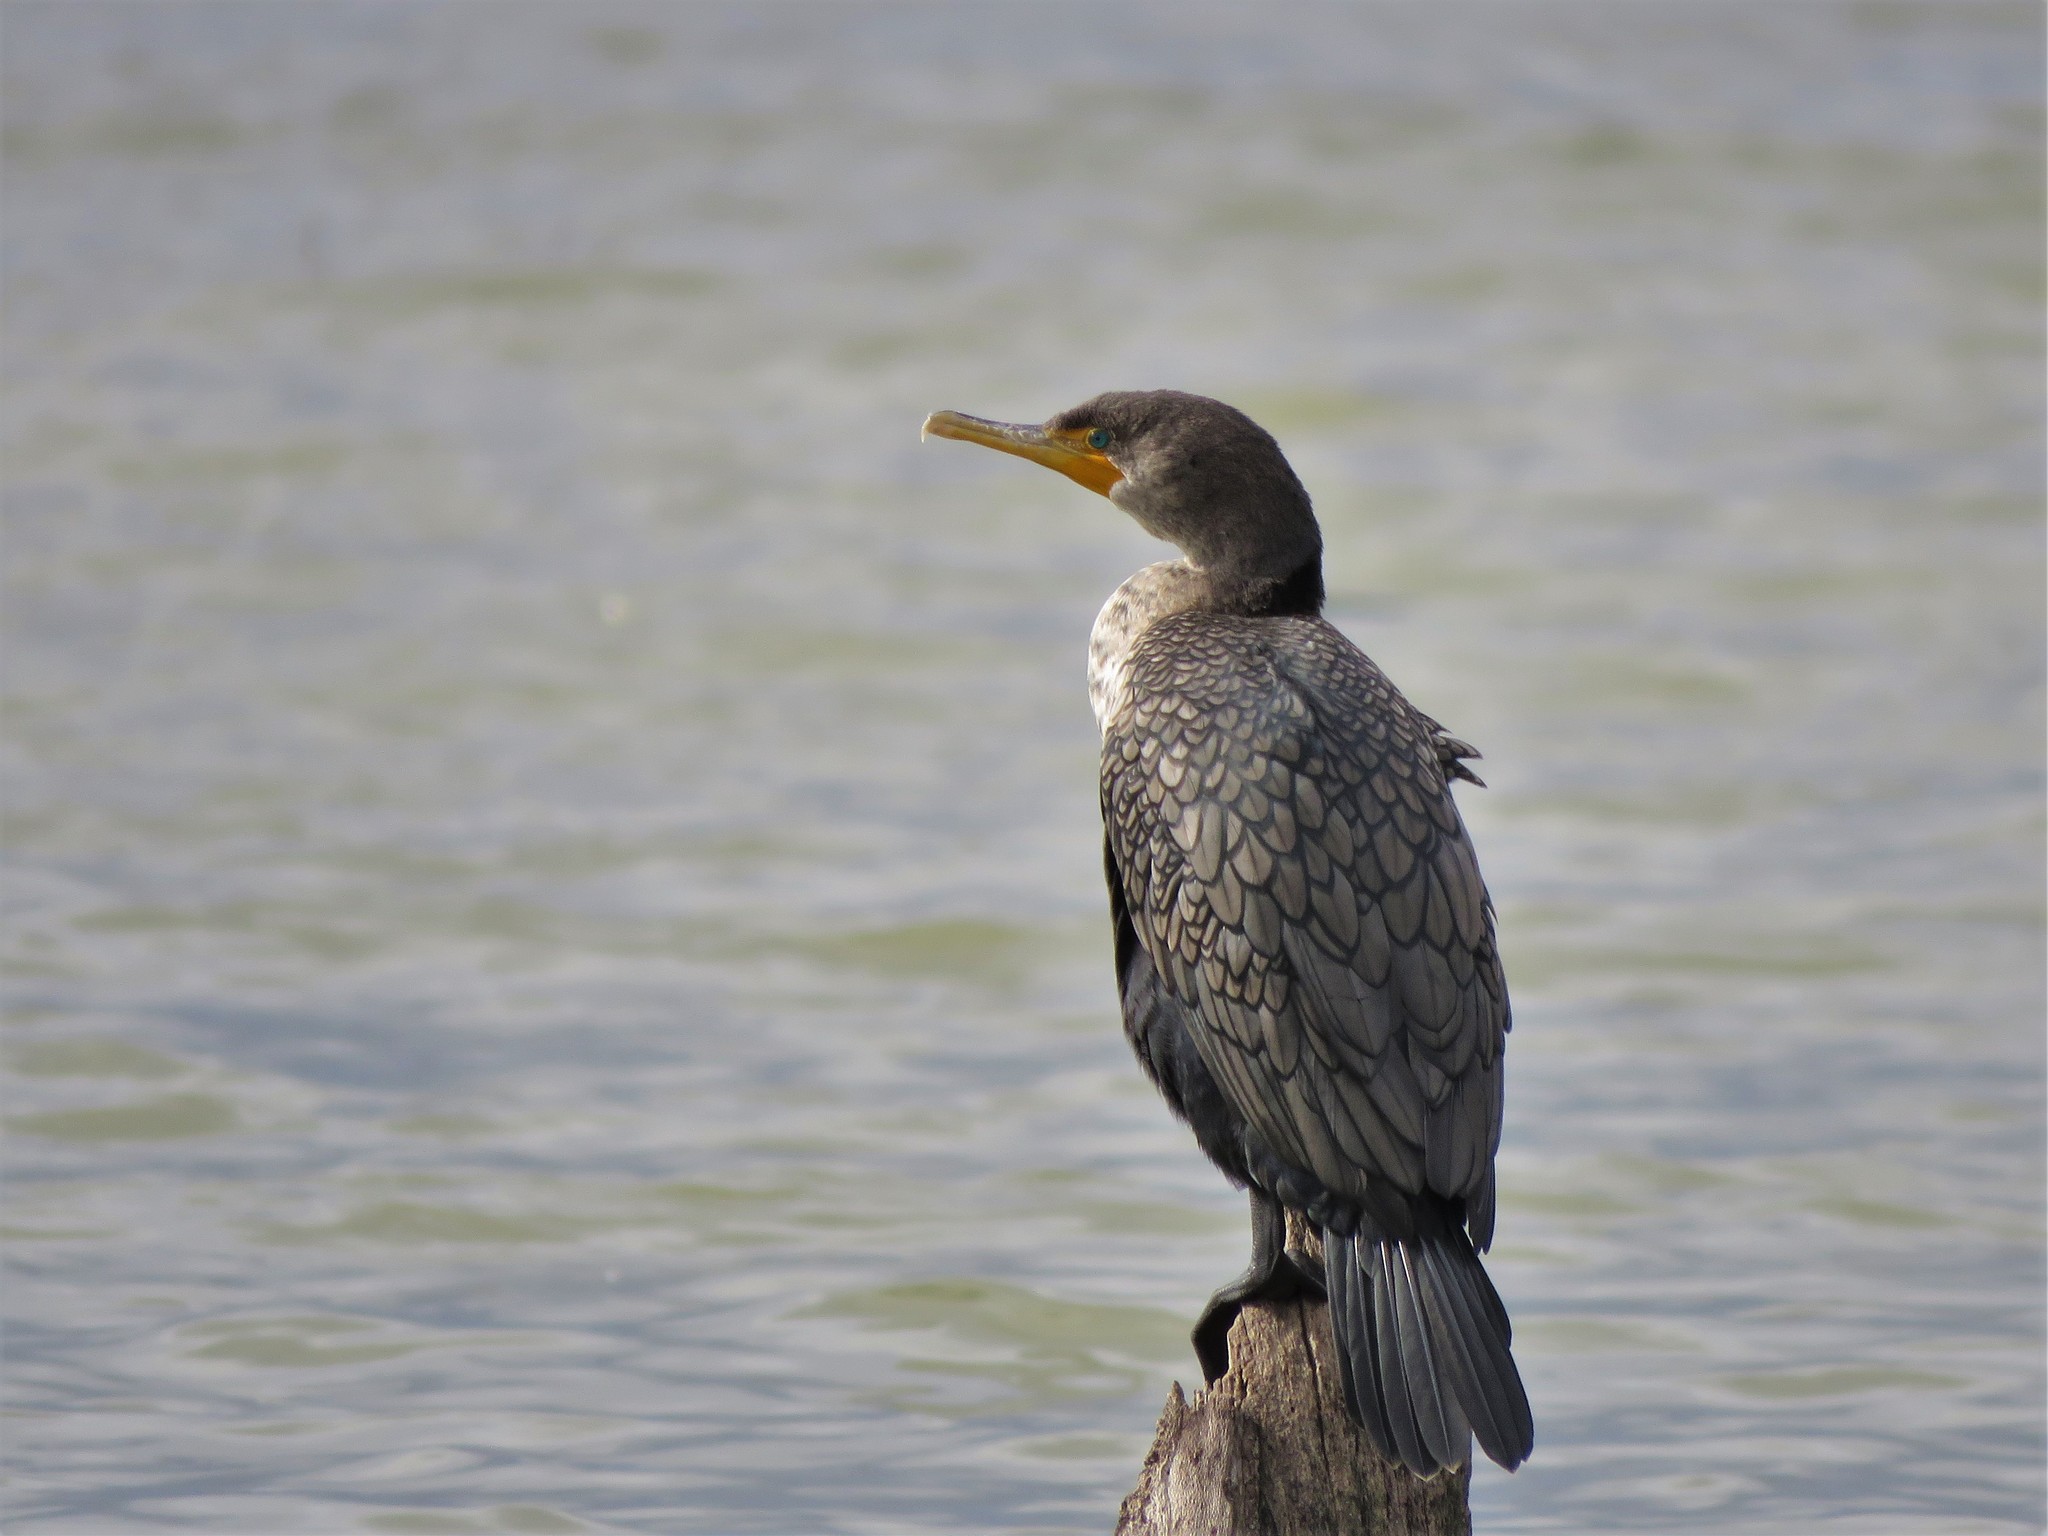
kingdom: Animalia
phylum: Chordata
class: Aves
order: Suliformes
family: Phalacrocoracidae
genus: Phalacrocorax
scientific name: Phalacrocorax auritus
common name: Double-crested cormorant
